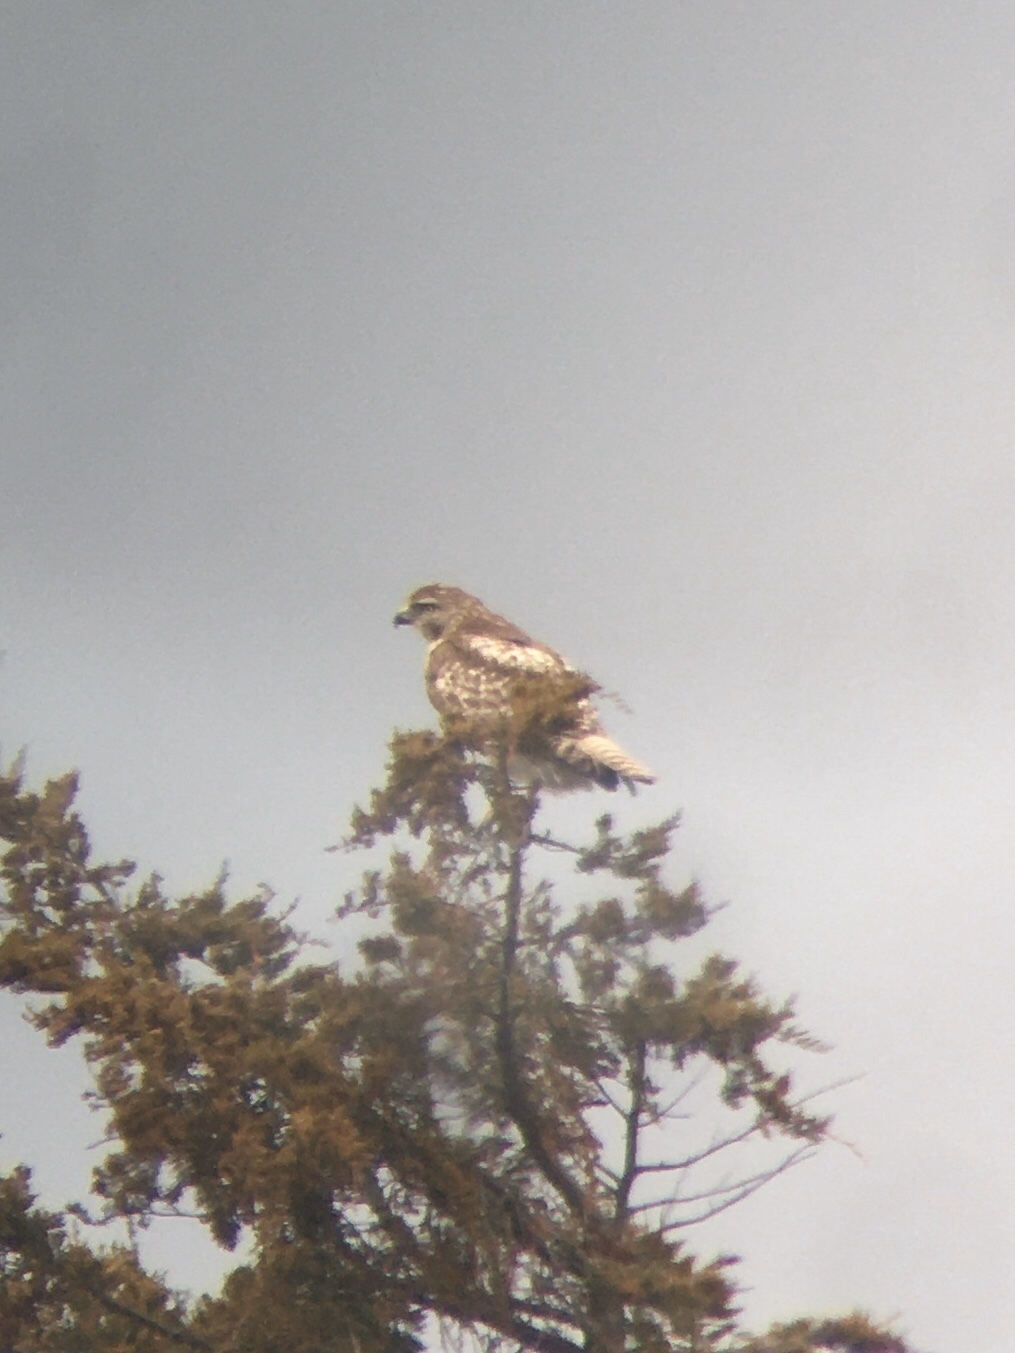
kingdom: Animalia
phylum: Chordata
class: Aves
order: Accipitriformes
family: Accipitridae
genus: Buteo
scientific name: Buteo jamaicensis
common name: Red-tailed hawk
